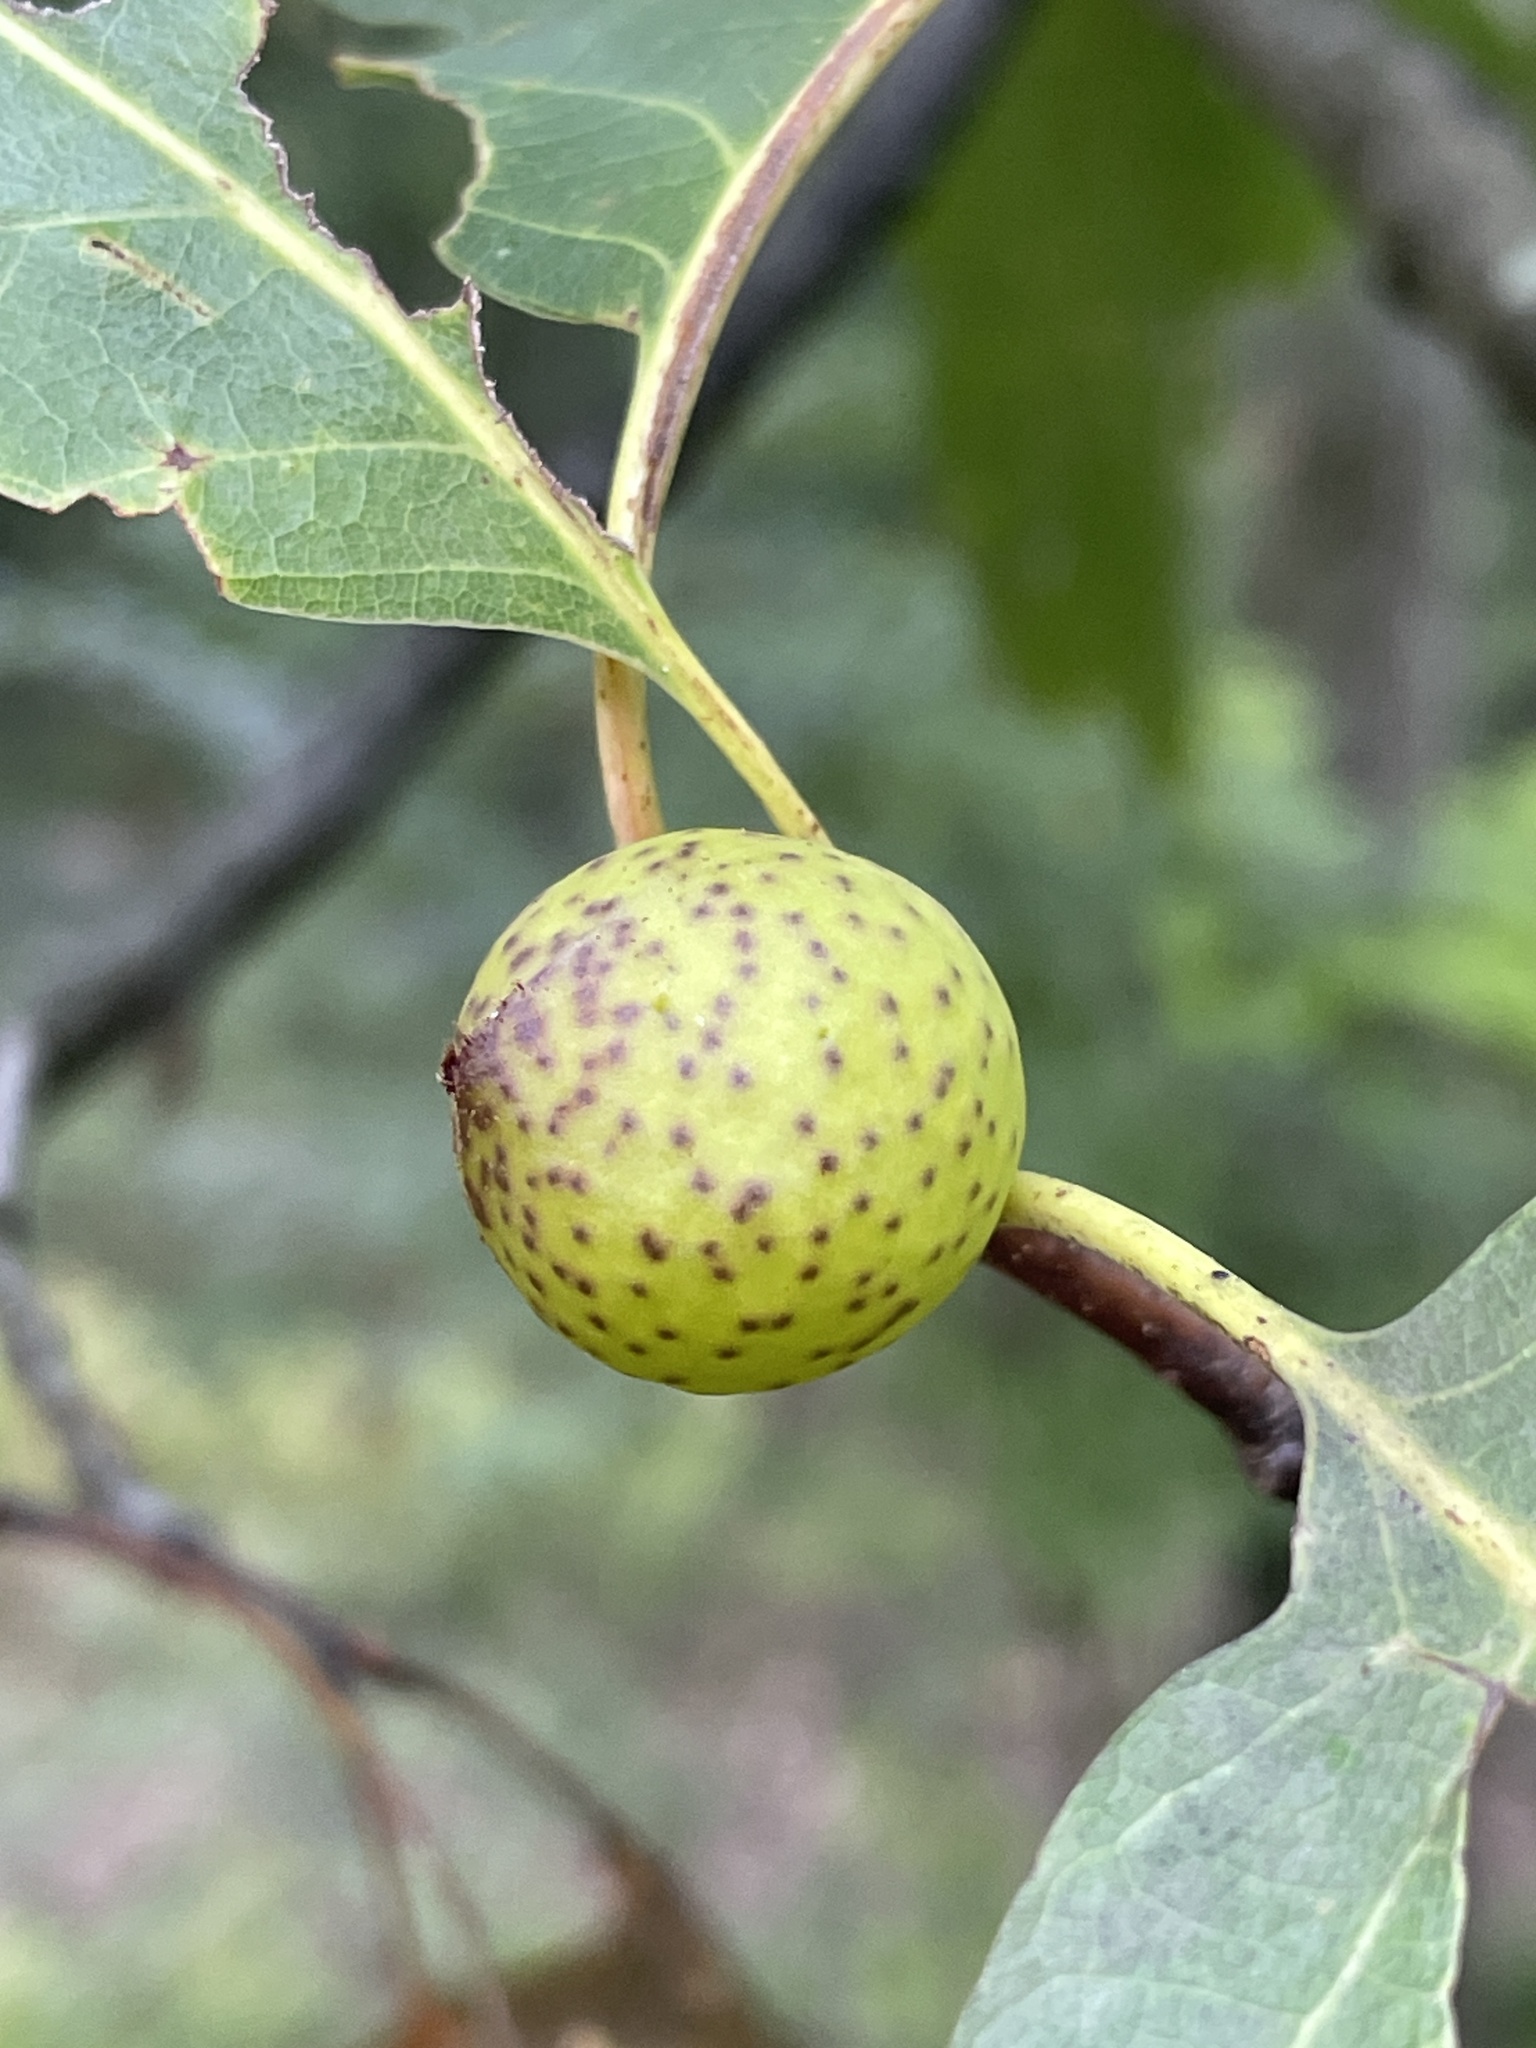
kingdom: Animalia
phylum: Arthropoda
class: Insecta
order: Hymenoptera
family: Cynipidae
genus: Amphibolips
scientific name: Amphibolips
